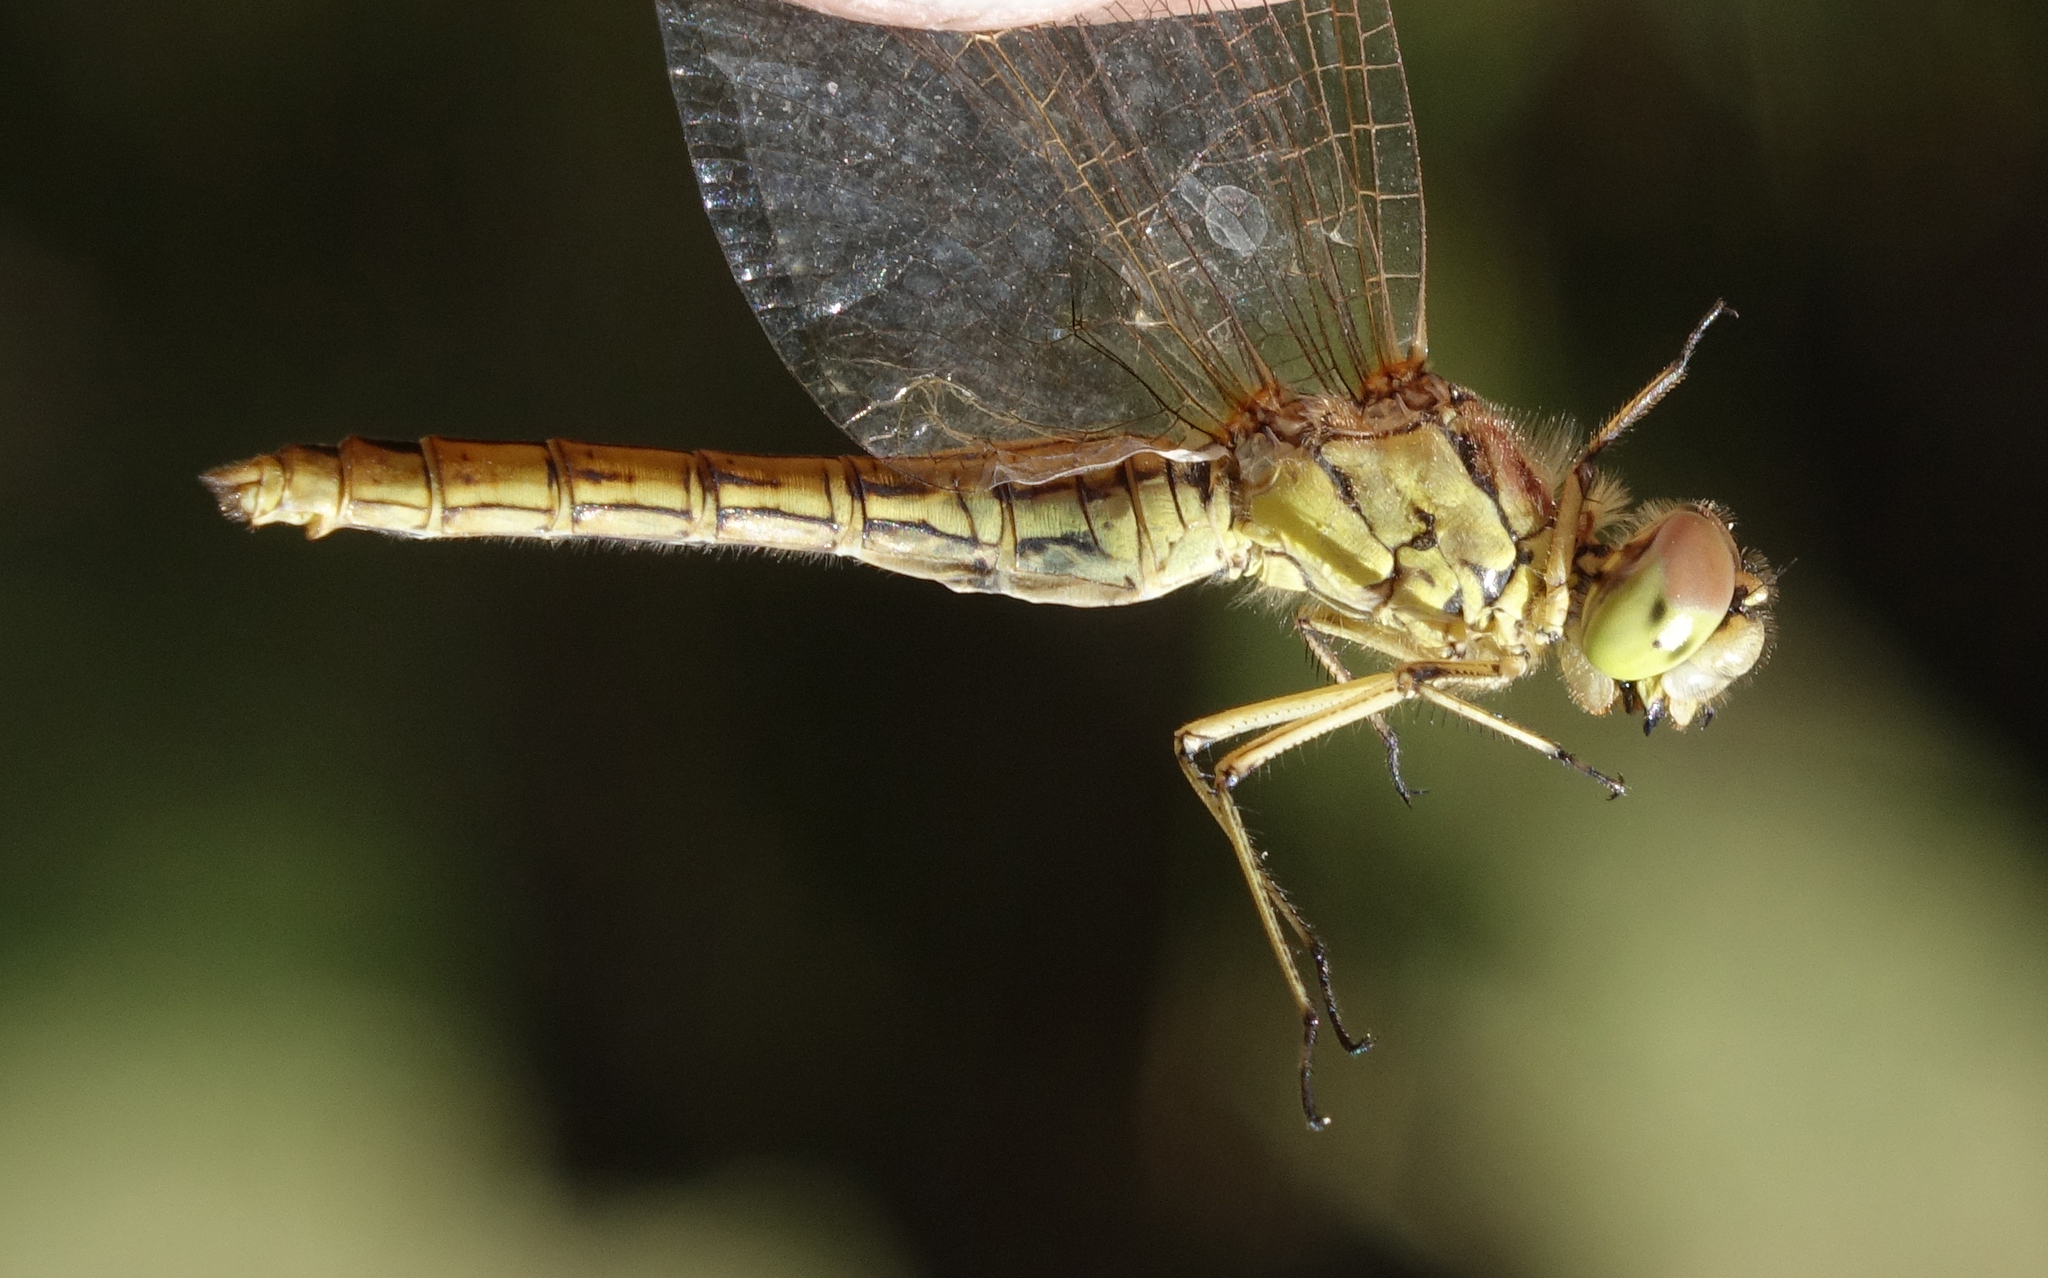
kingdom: Animalia
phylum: Arthropoda
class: Insecta
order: Odonata
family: Libellulidae
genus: Sympetrum
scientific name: Sympetrum vulgatum
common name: Vagrant darter
